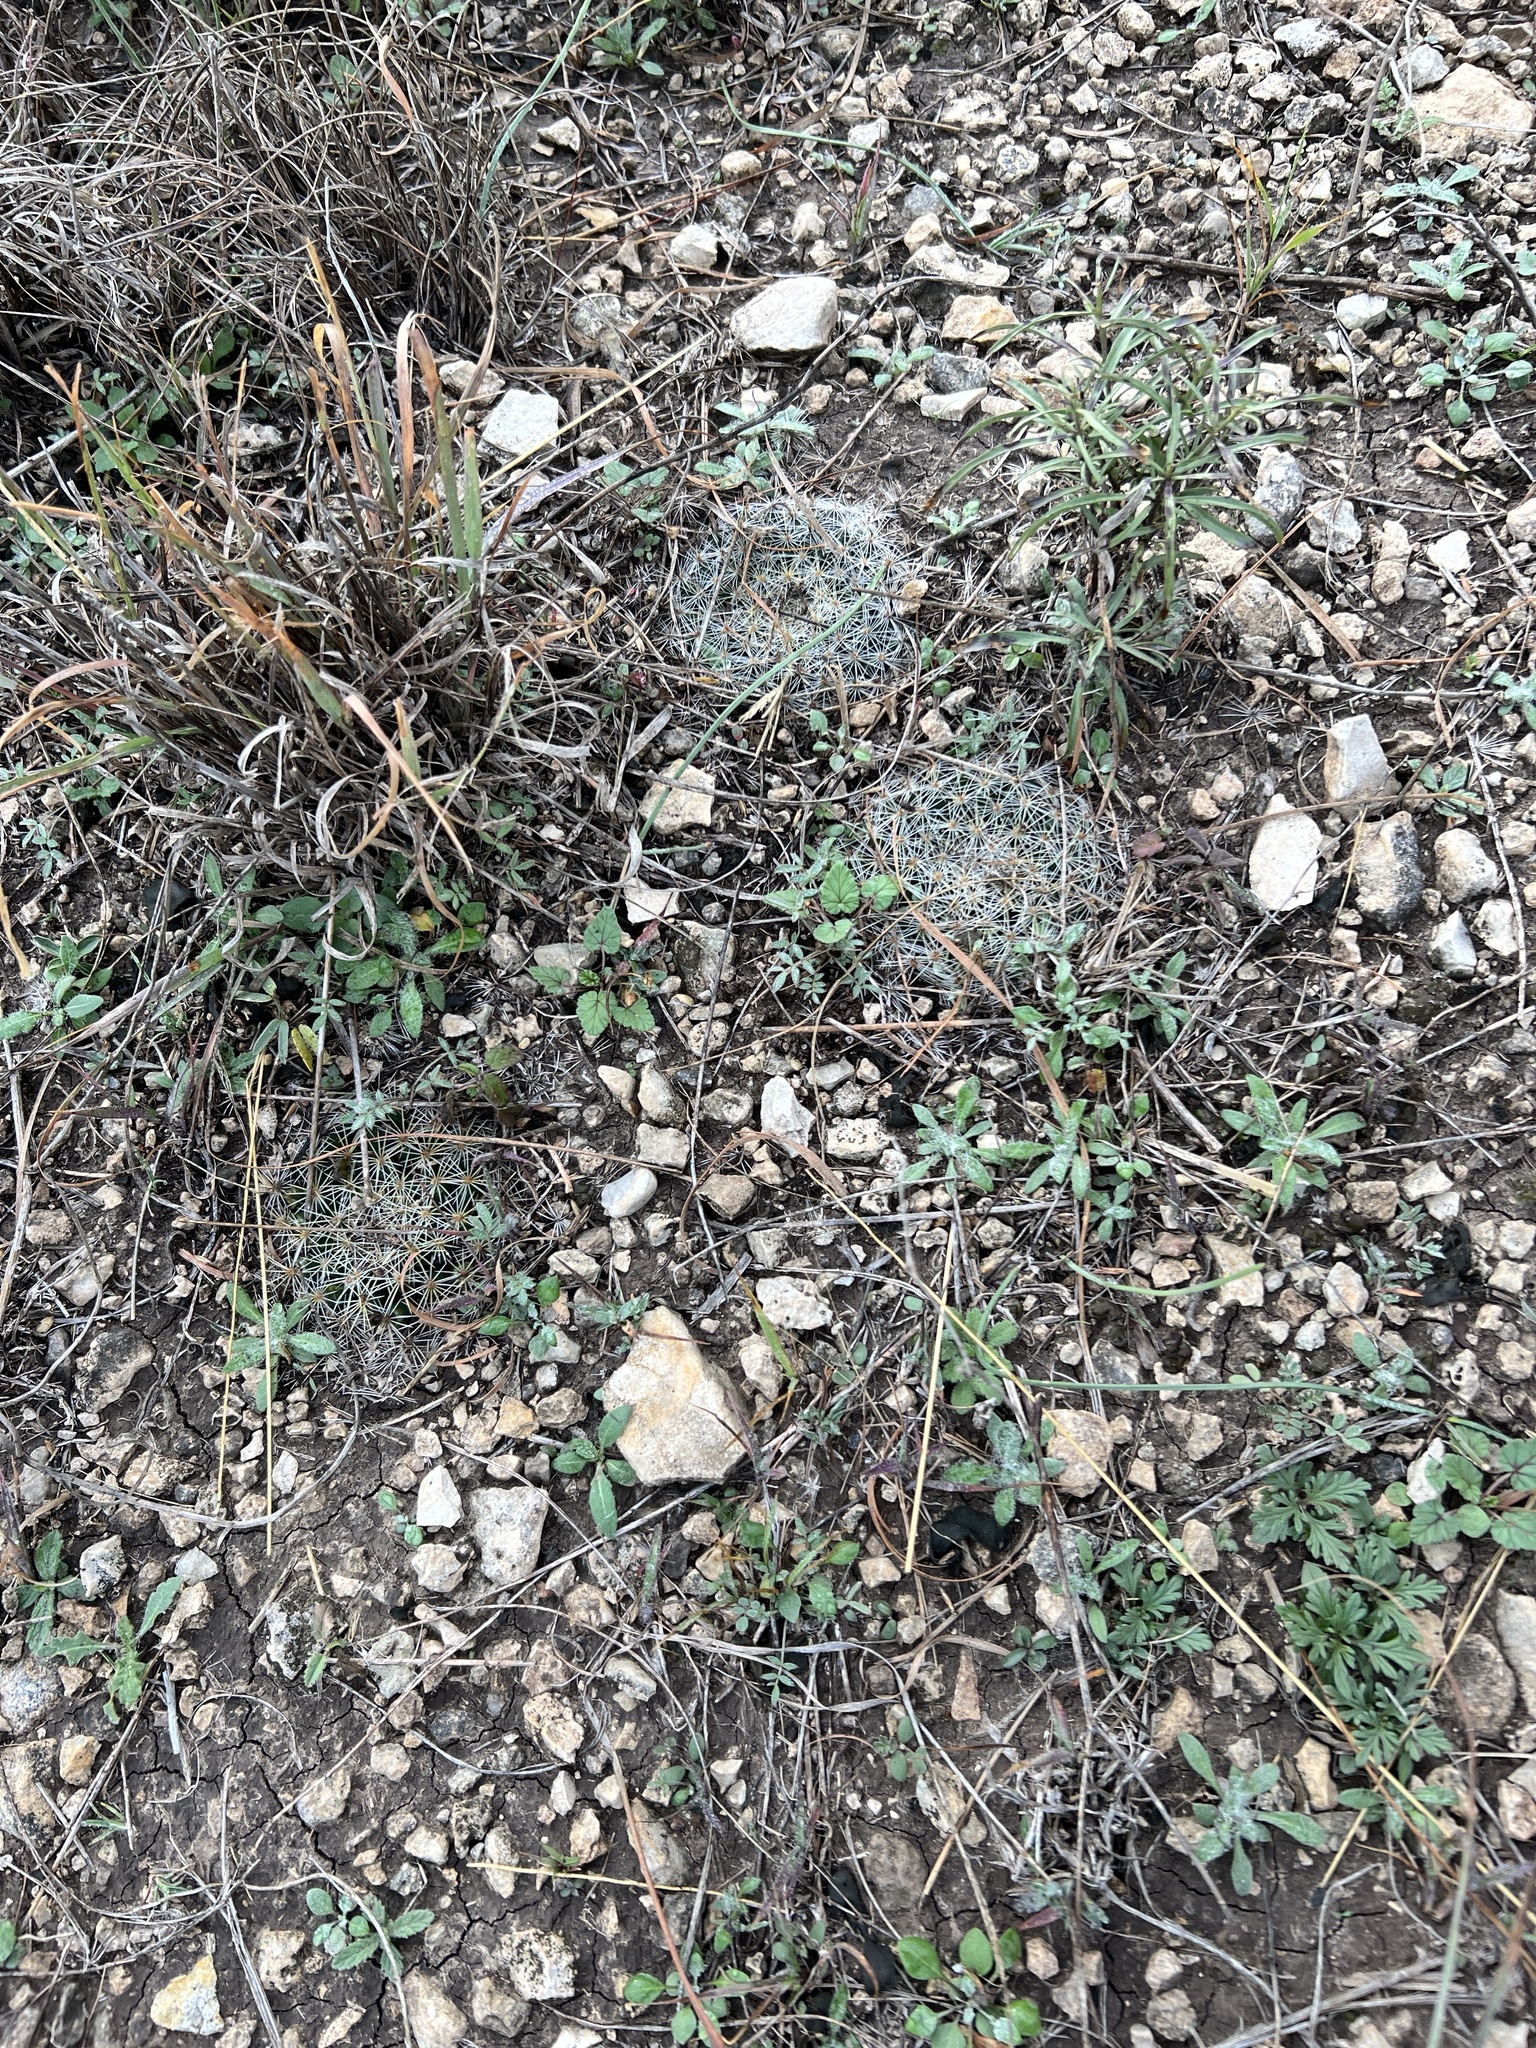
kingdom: Plantae
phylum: Tracheophyta
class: Magnoliopsida
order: Caryophyllales
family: Cactaceae
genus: Mammillaria
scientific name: Mammillaria heyderi
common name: Little nipple cactus
